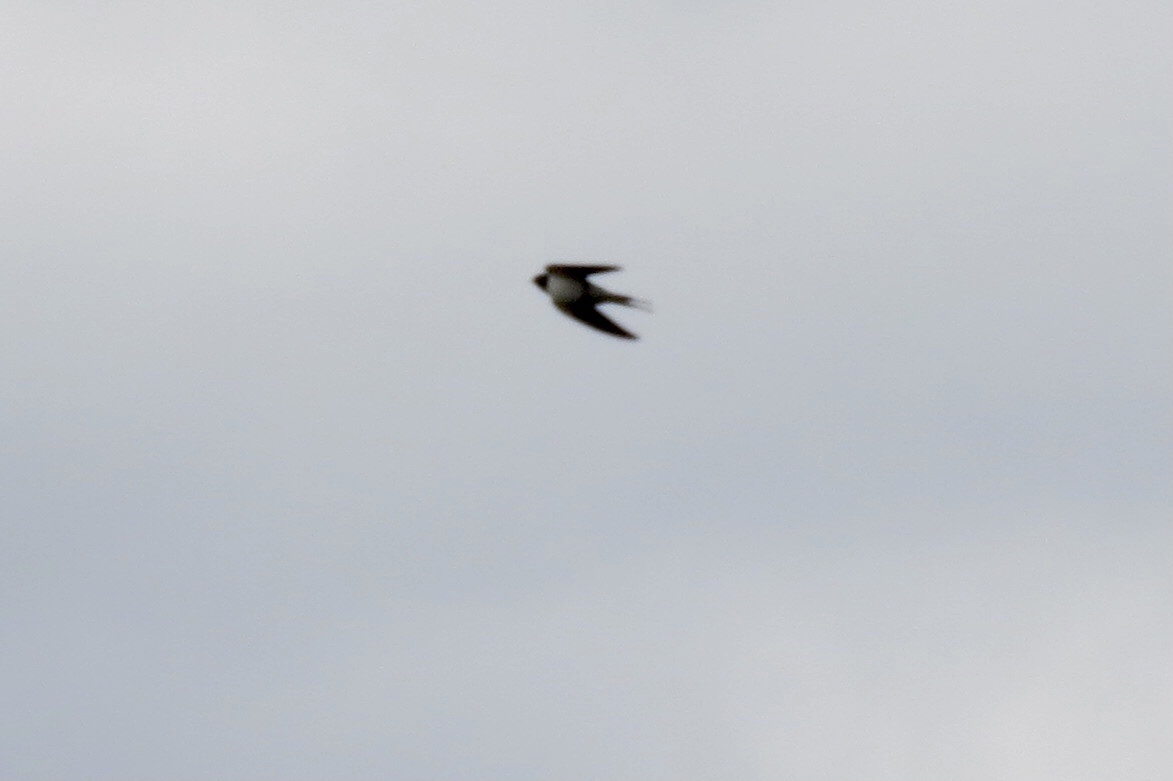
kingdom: Animalia
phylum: Chordata
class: Aves
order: Passeriformes
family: Hirundinidae
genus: Hirundo
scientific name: Hirundo rustica
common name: Barn swallow
